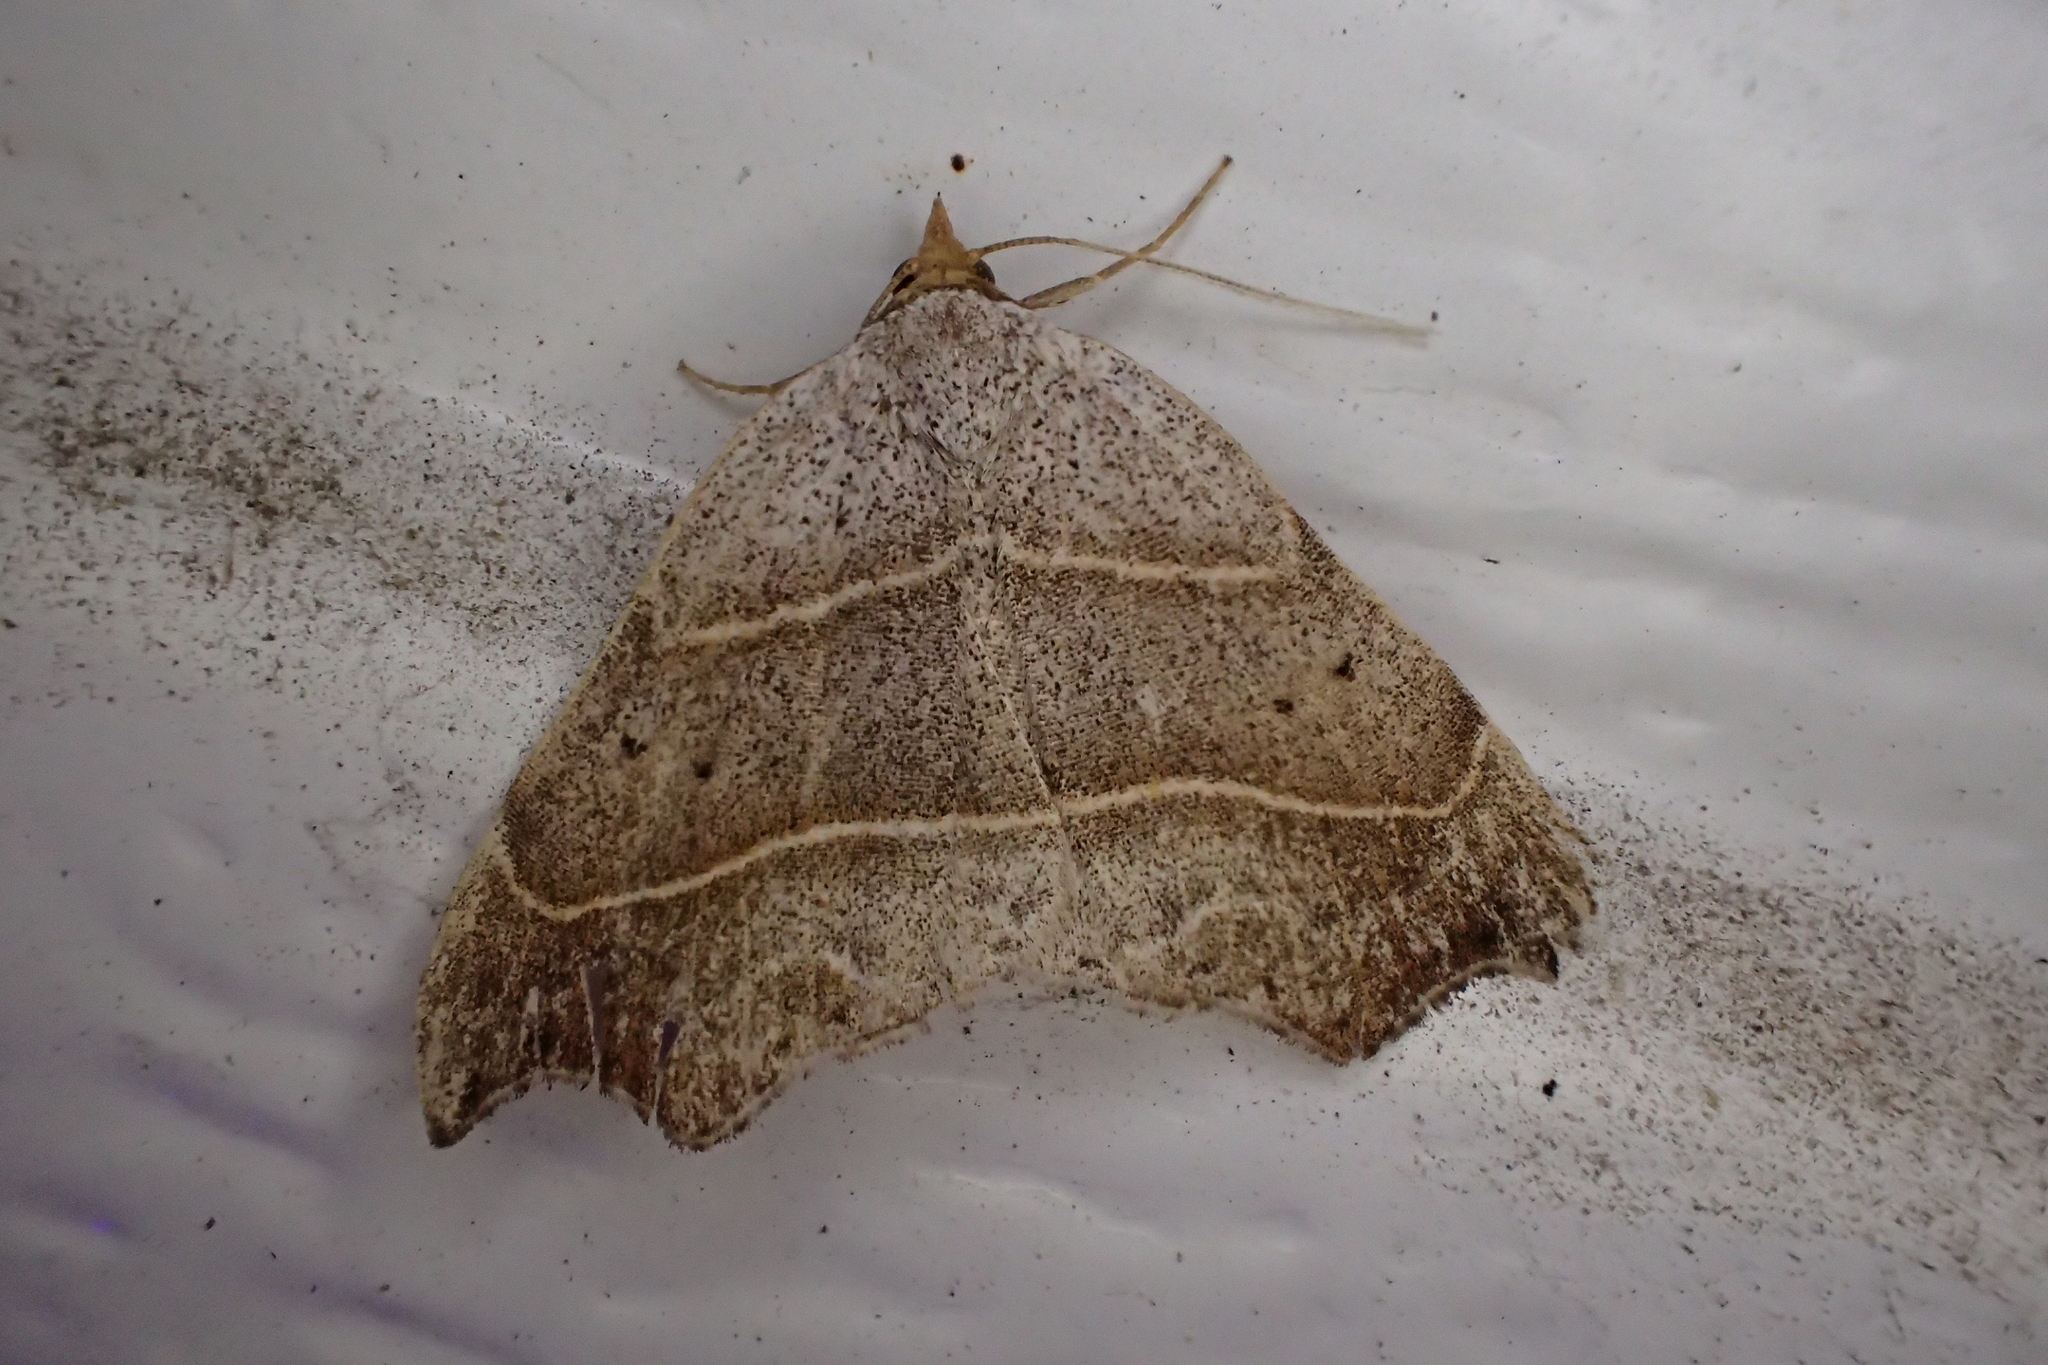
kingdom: Animalia
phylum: Arthropoda
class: Insecta
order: Lepidoptera
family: Erebidae
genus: Laspeyria
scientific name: Laspeyria flexula
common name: Beautiful hook-tip
